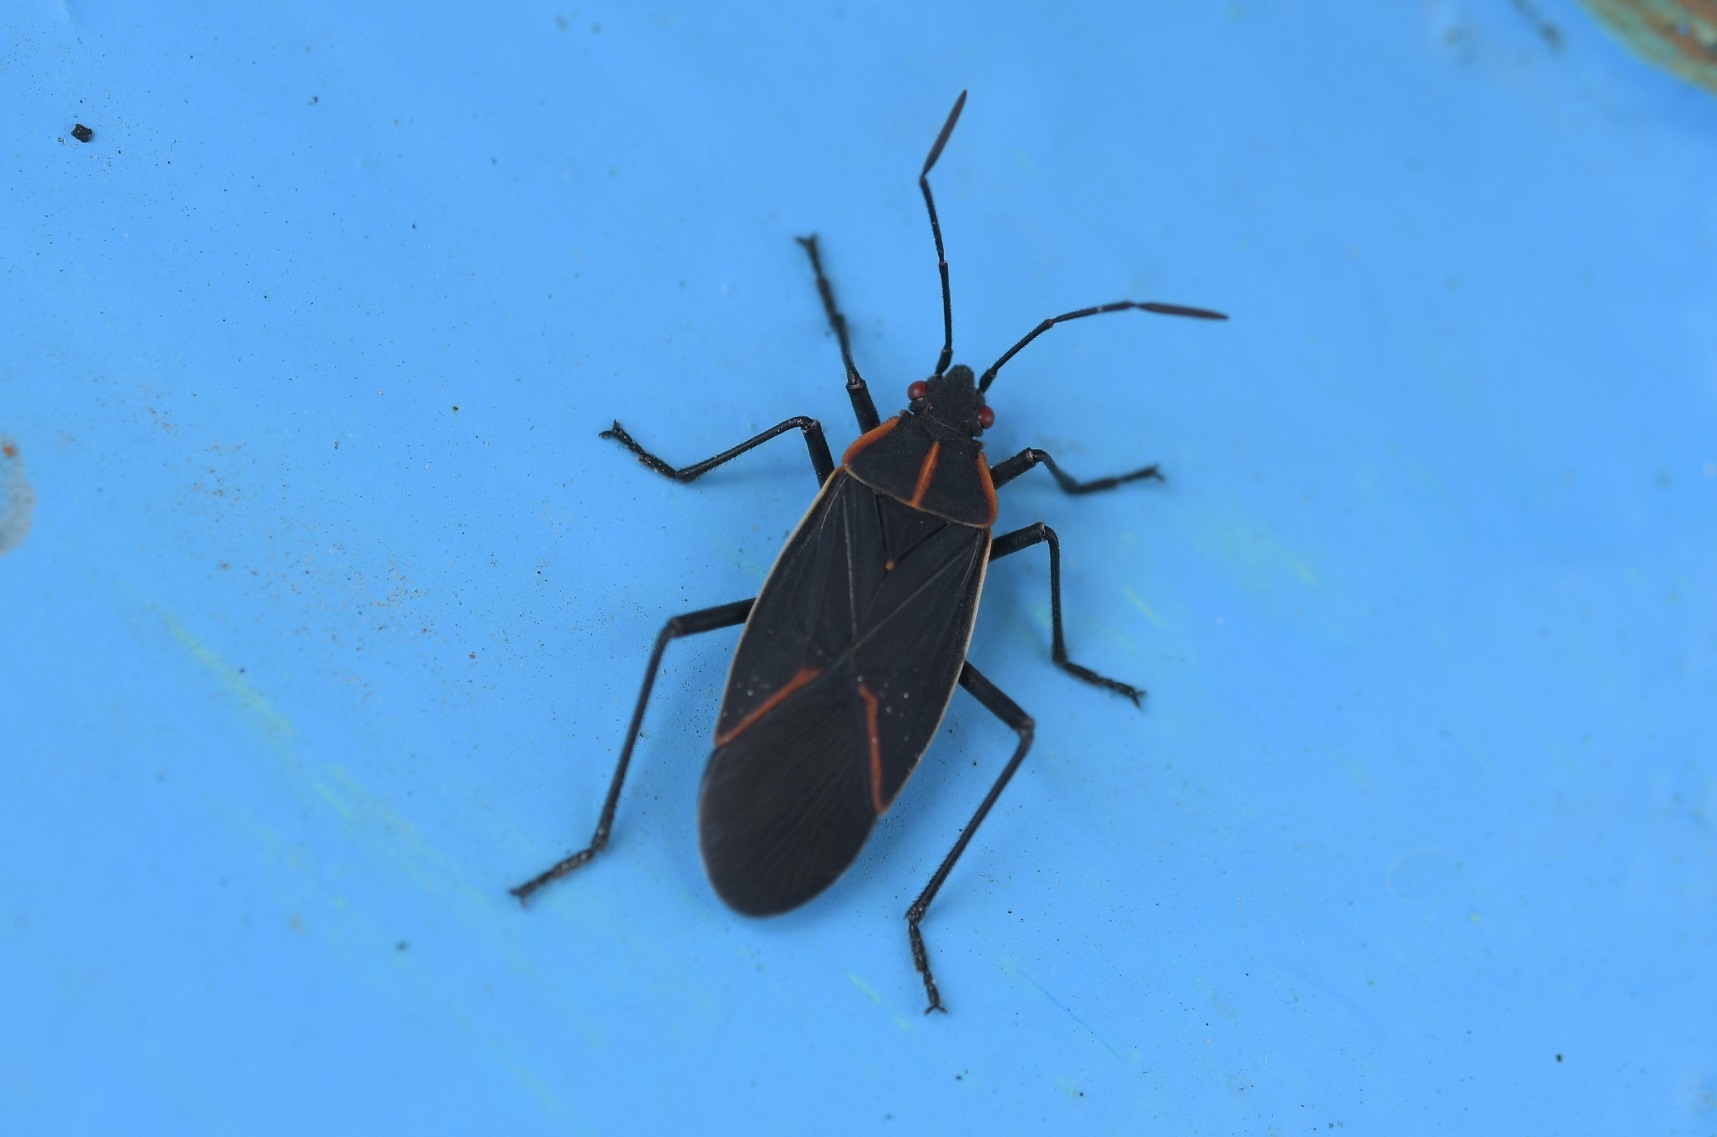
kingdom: Animalia
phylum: Arthropoda
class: Insecta
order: Hemiptera
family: Rhopalidae
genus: Boisea
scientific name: Boisea trivittata
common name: Boxelder bug
